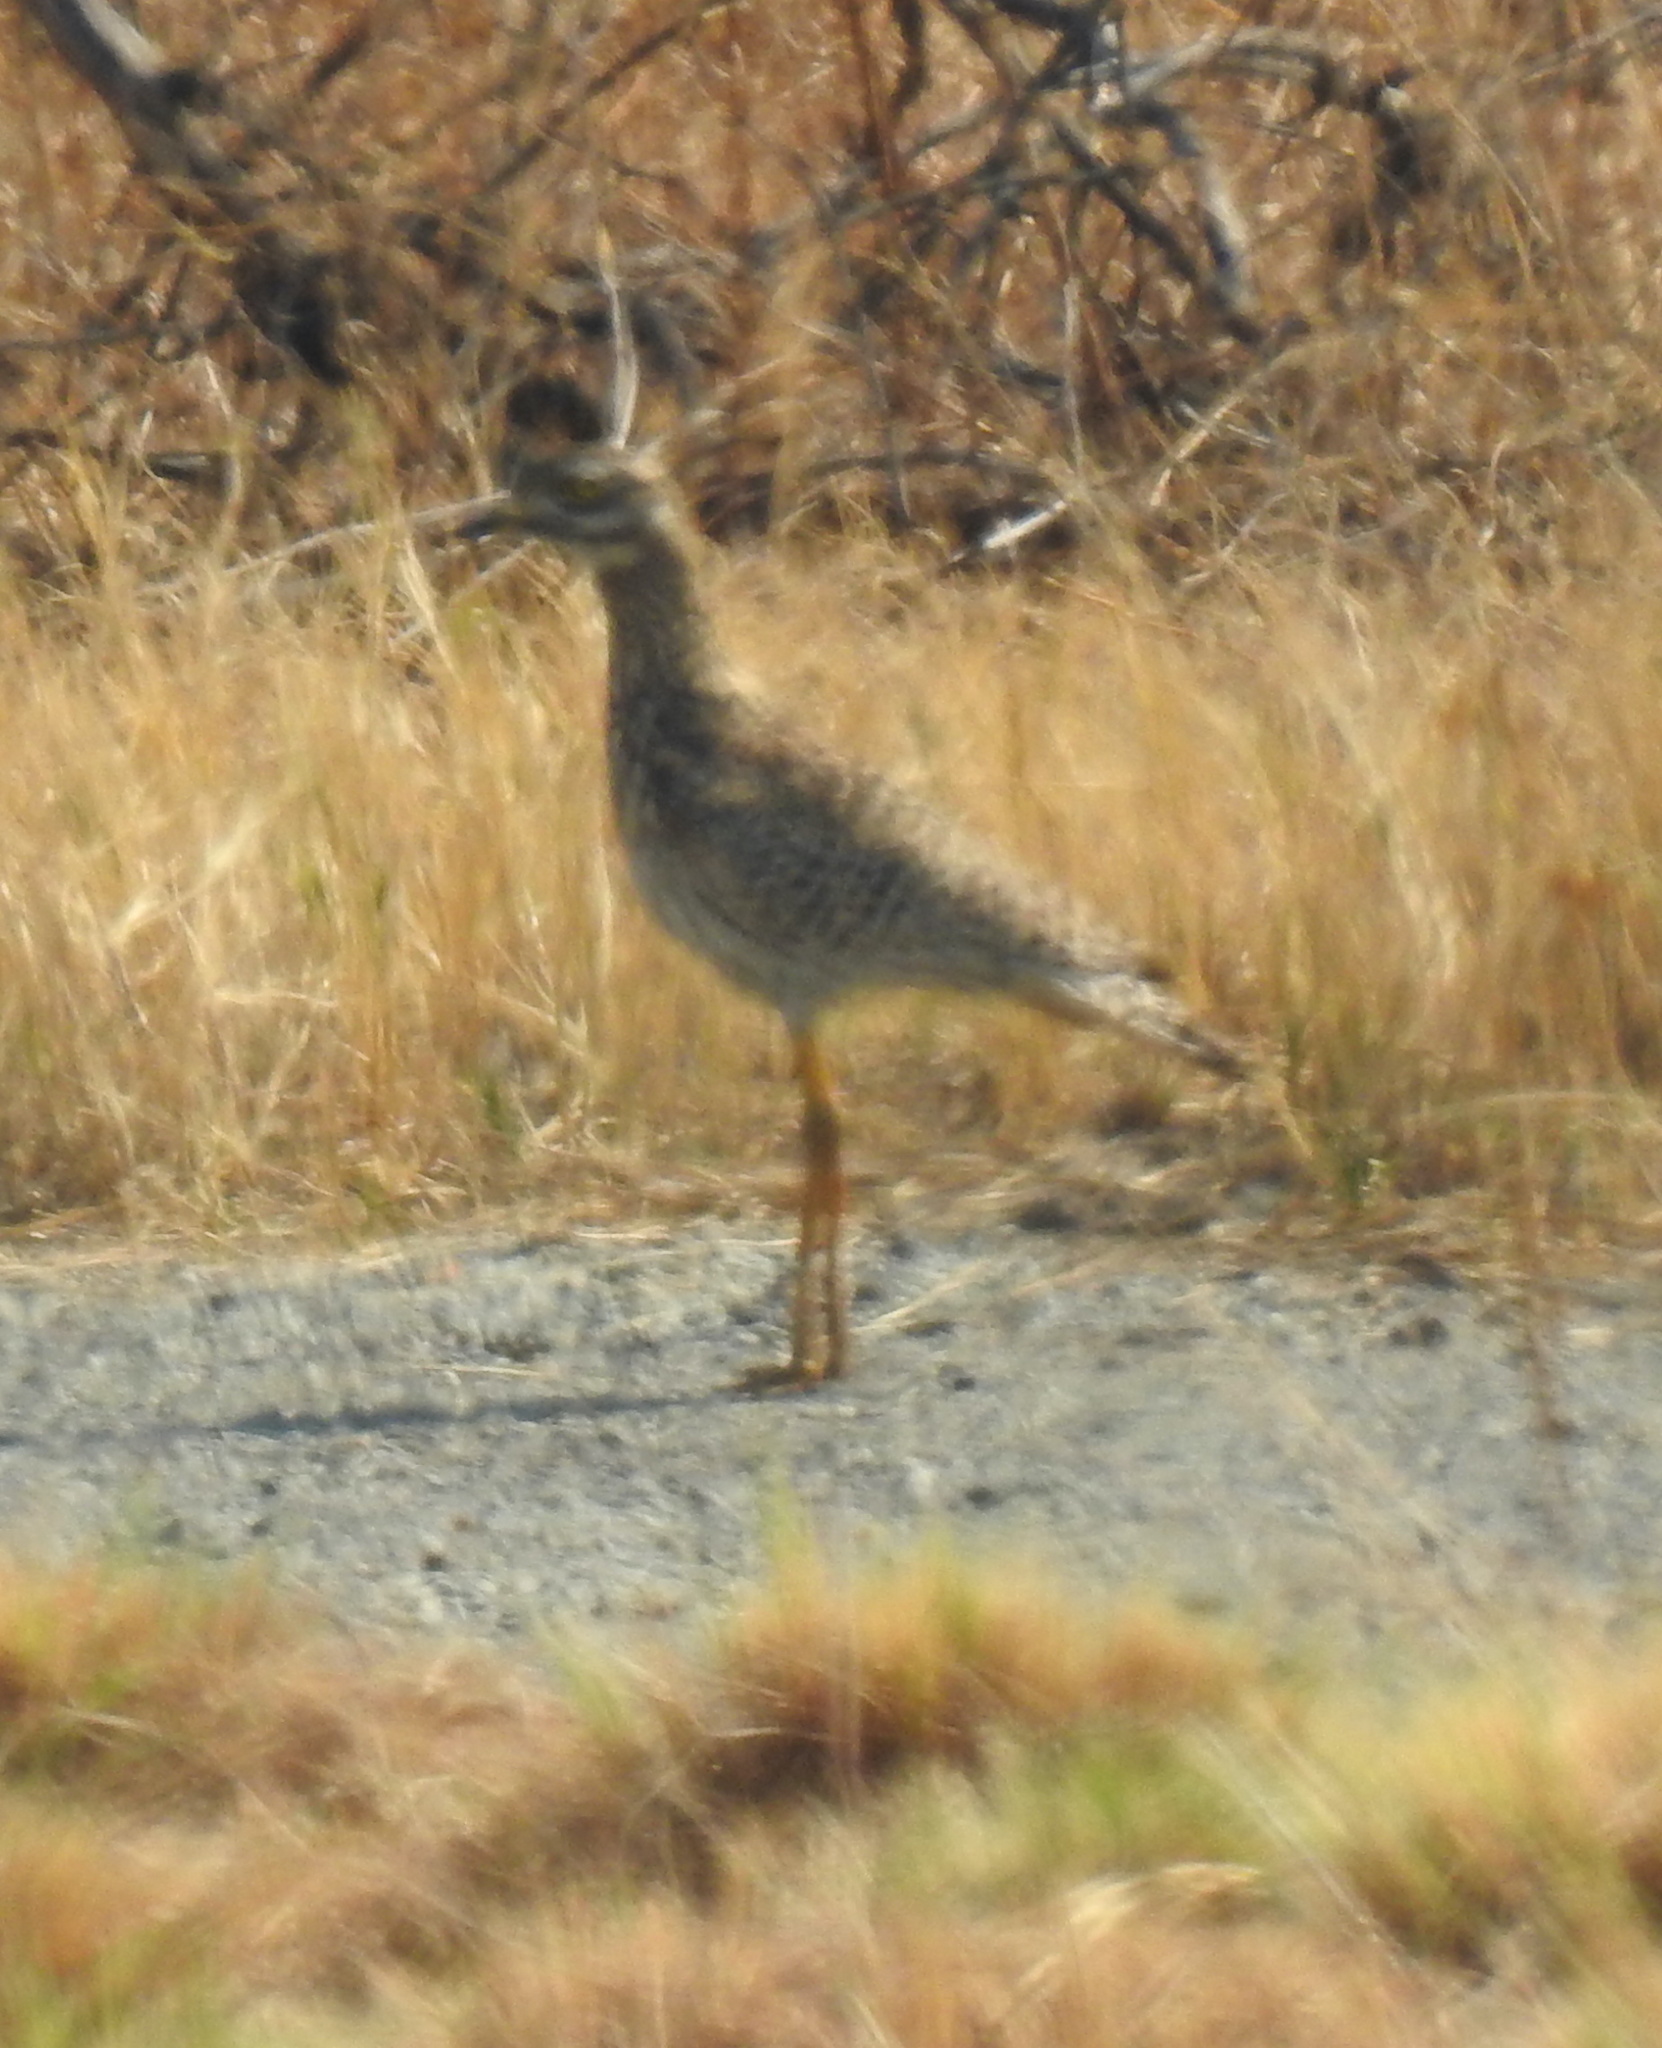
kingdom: Animalia
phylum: Chordata
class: Aves
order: Charadriiformes
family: Burhinidae
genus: Burhinus
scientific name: Burhinus capensis
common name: Spotted thick-knee
